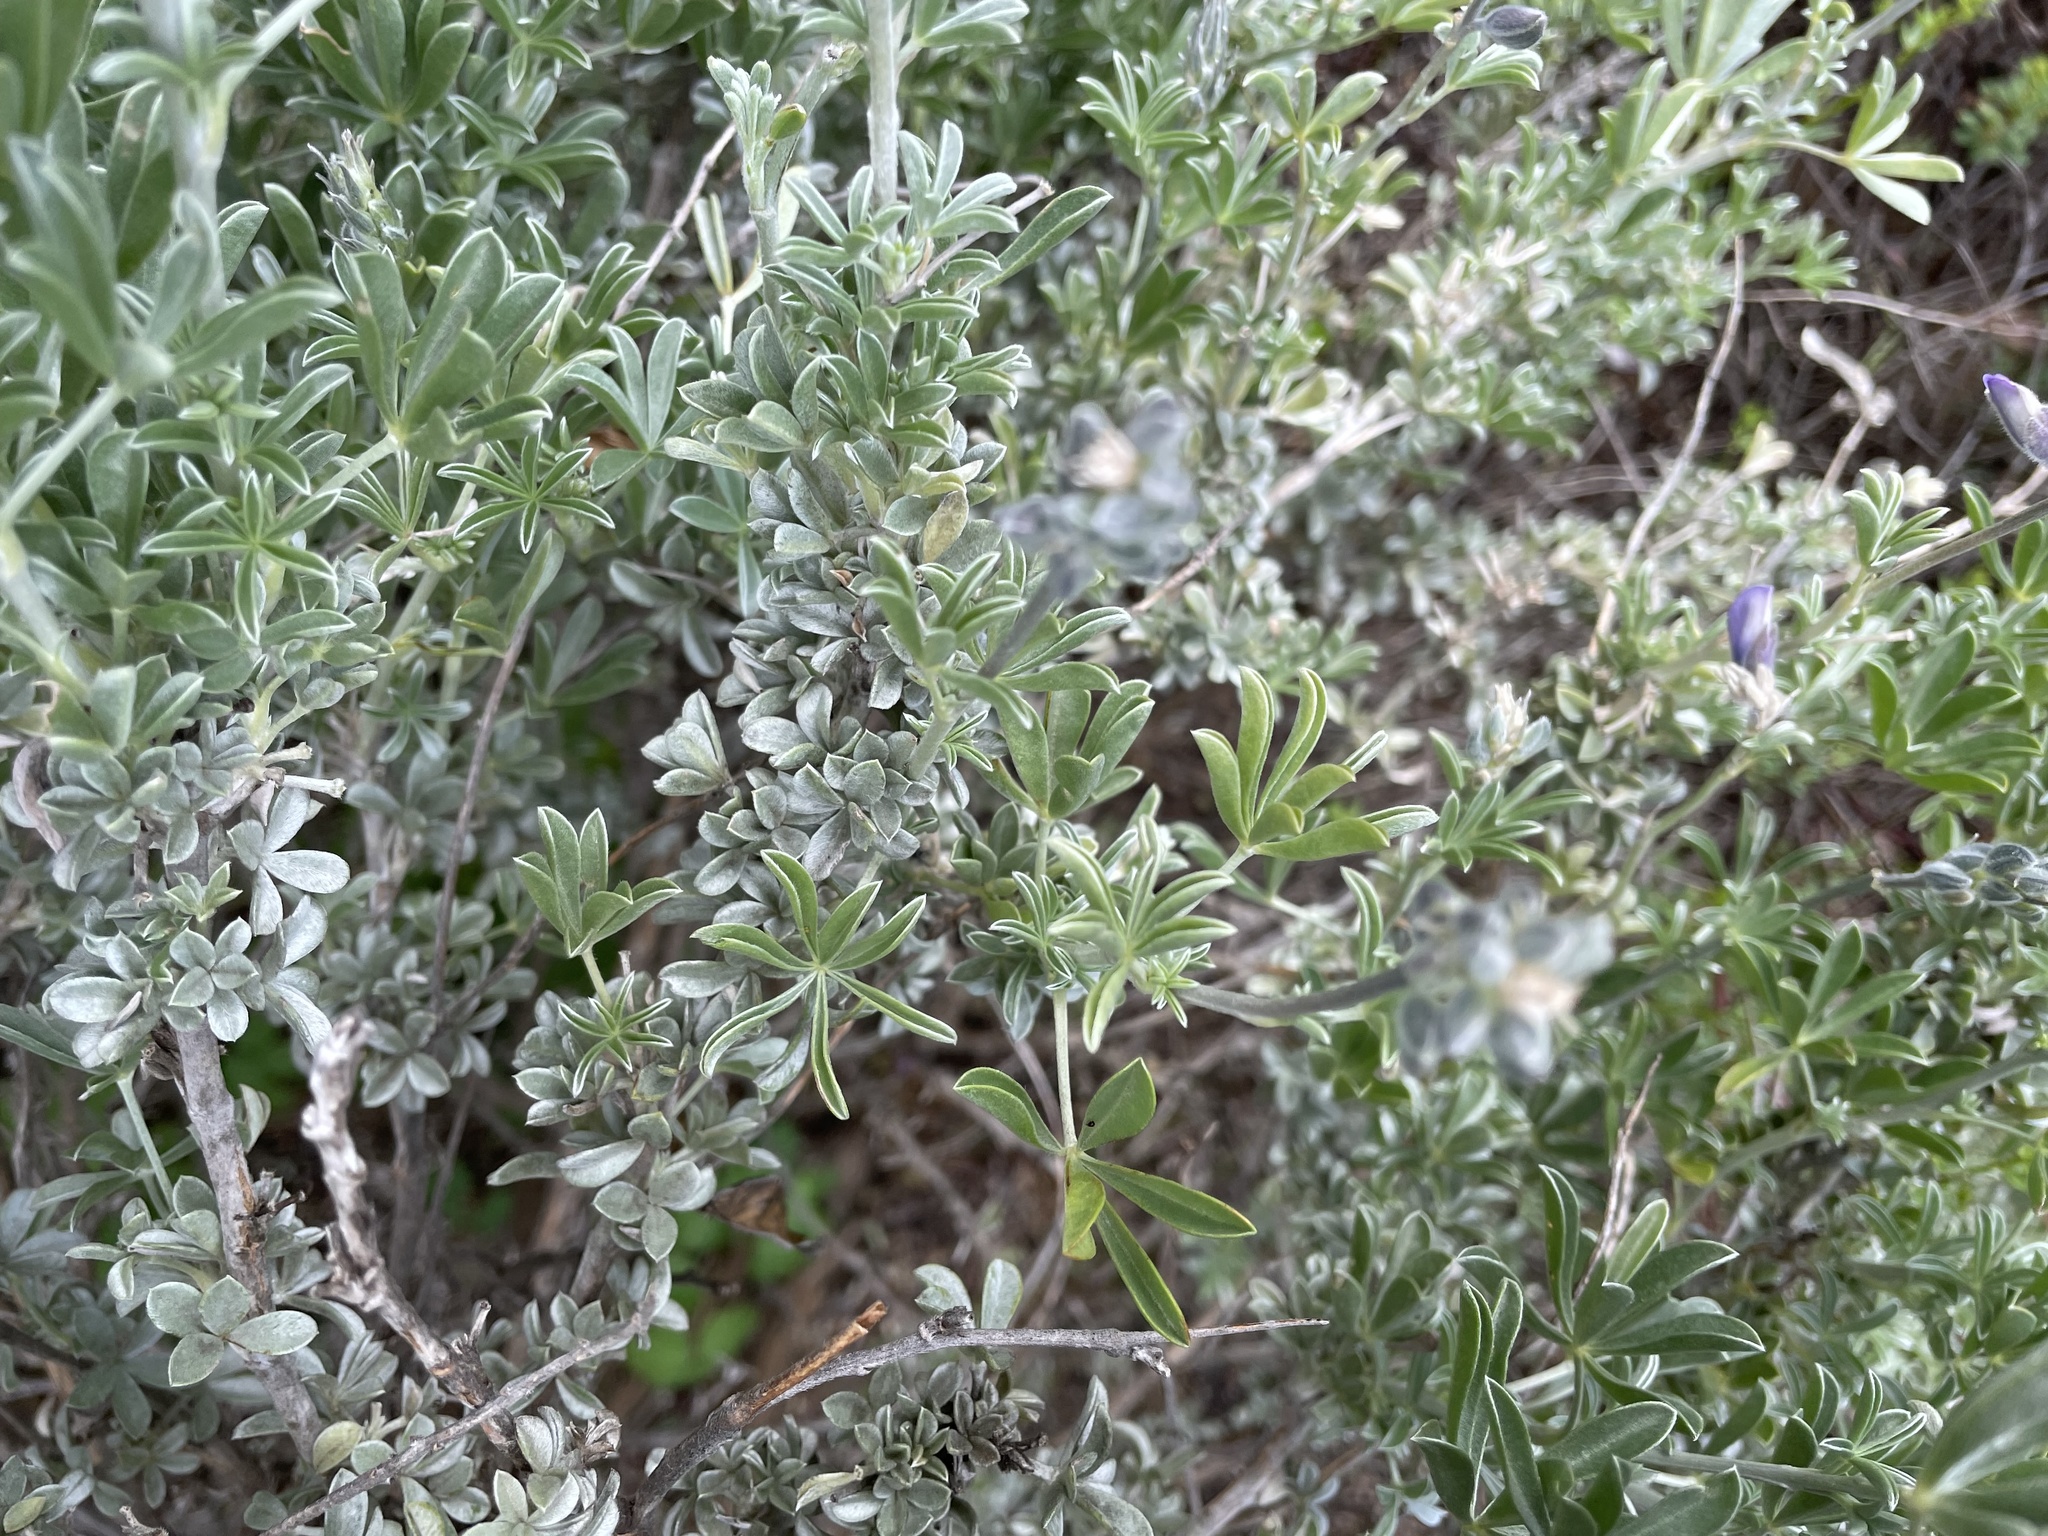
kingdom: Plantae
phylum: Tracheophyta
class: Magnoliopsida
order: Fabales
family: Fabaceae
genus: Lupinus
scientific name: Lupinus chamissonis
